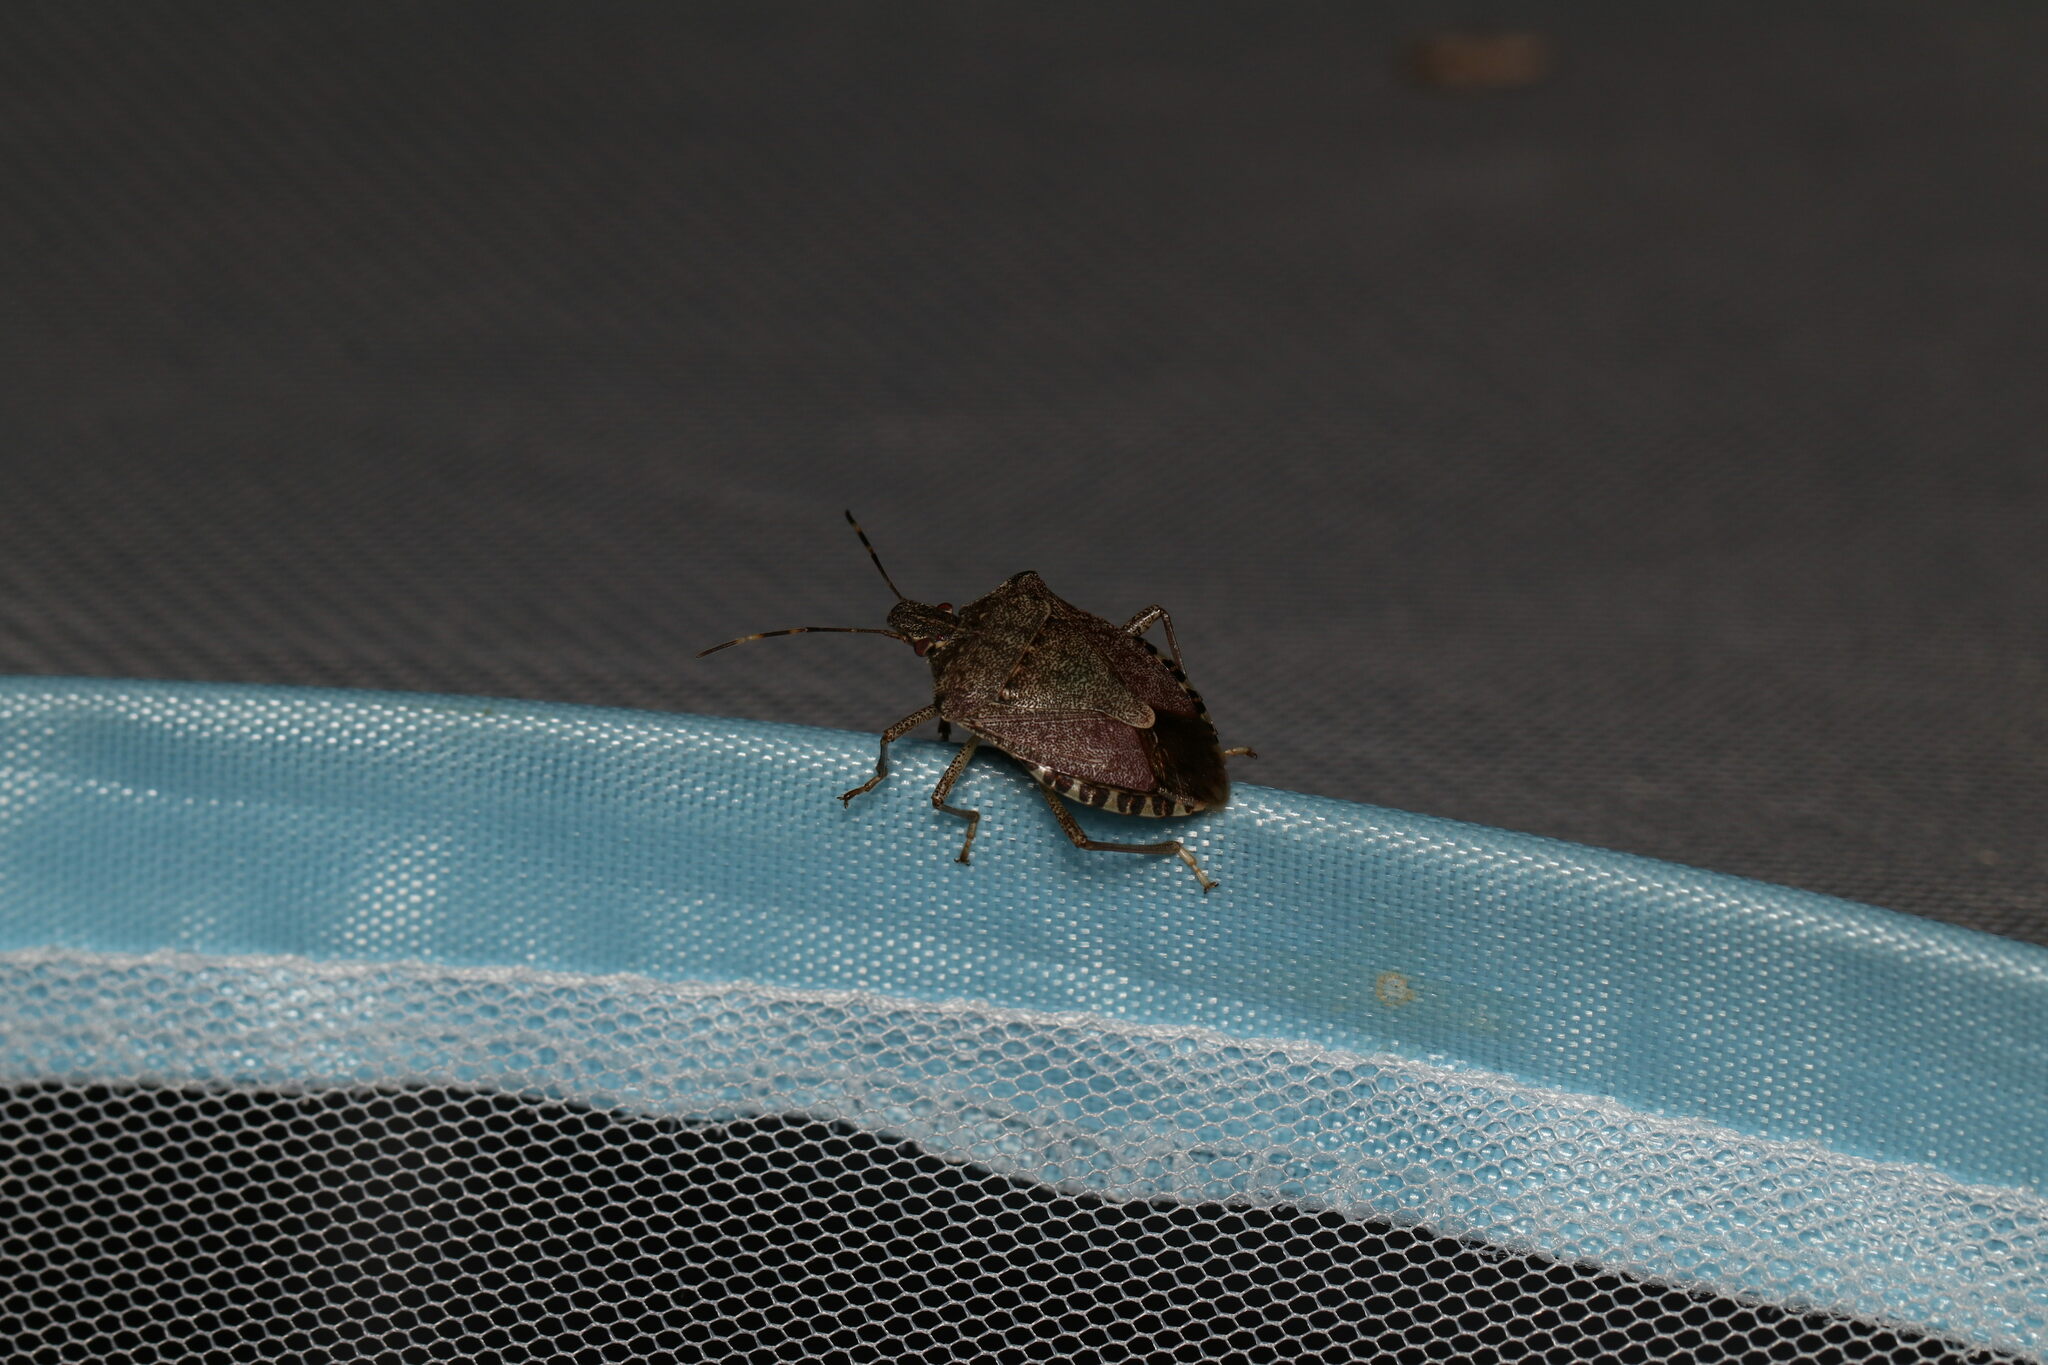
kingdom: Animalia
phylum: Arthropoda
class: Insecta
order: Hemiptera
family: Pentatomidae
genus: Halyomorpha
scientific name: Halyomorpha halys
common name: Brown marmorated stink bug
